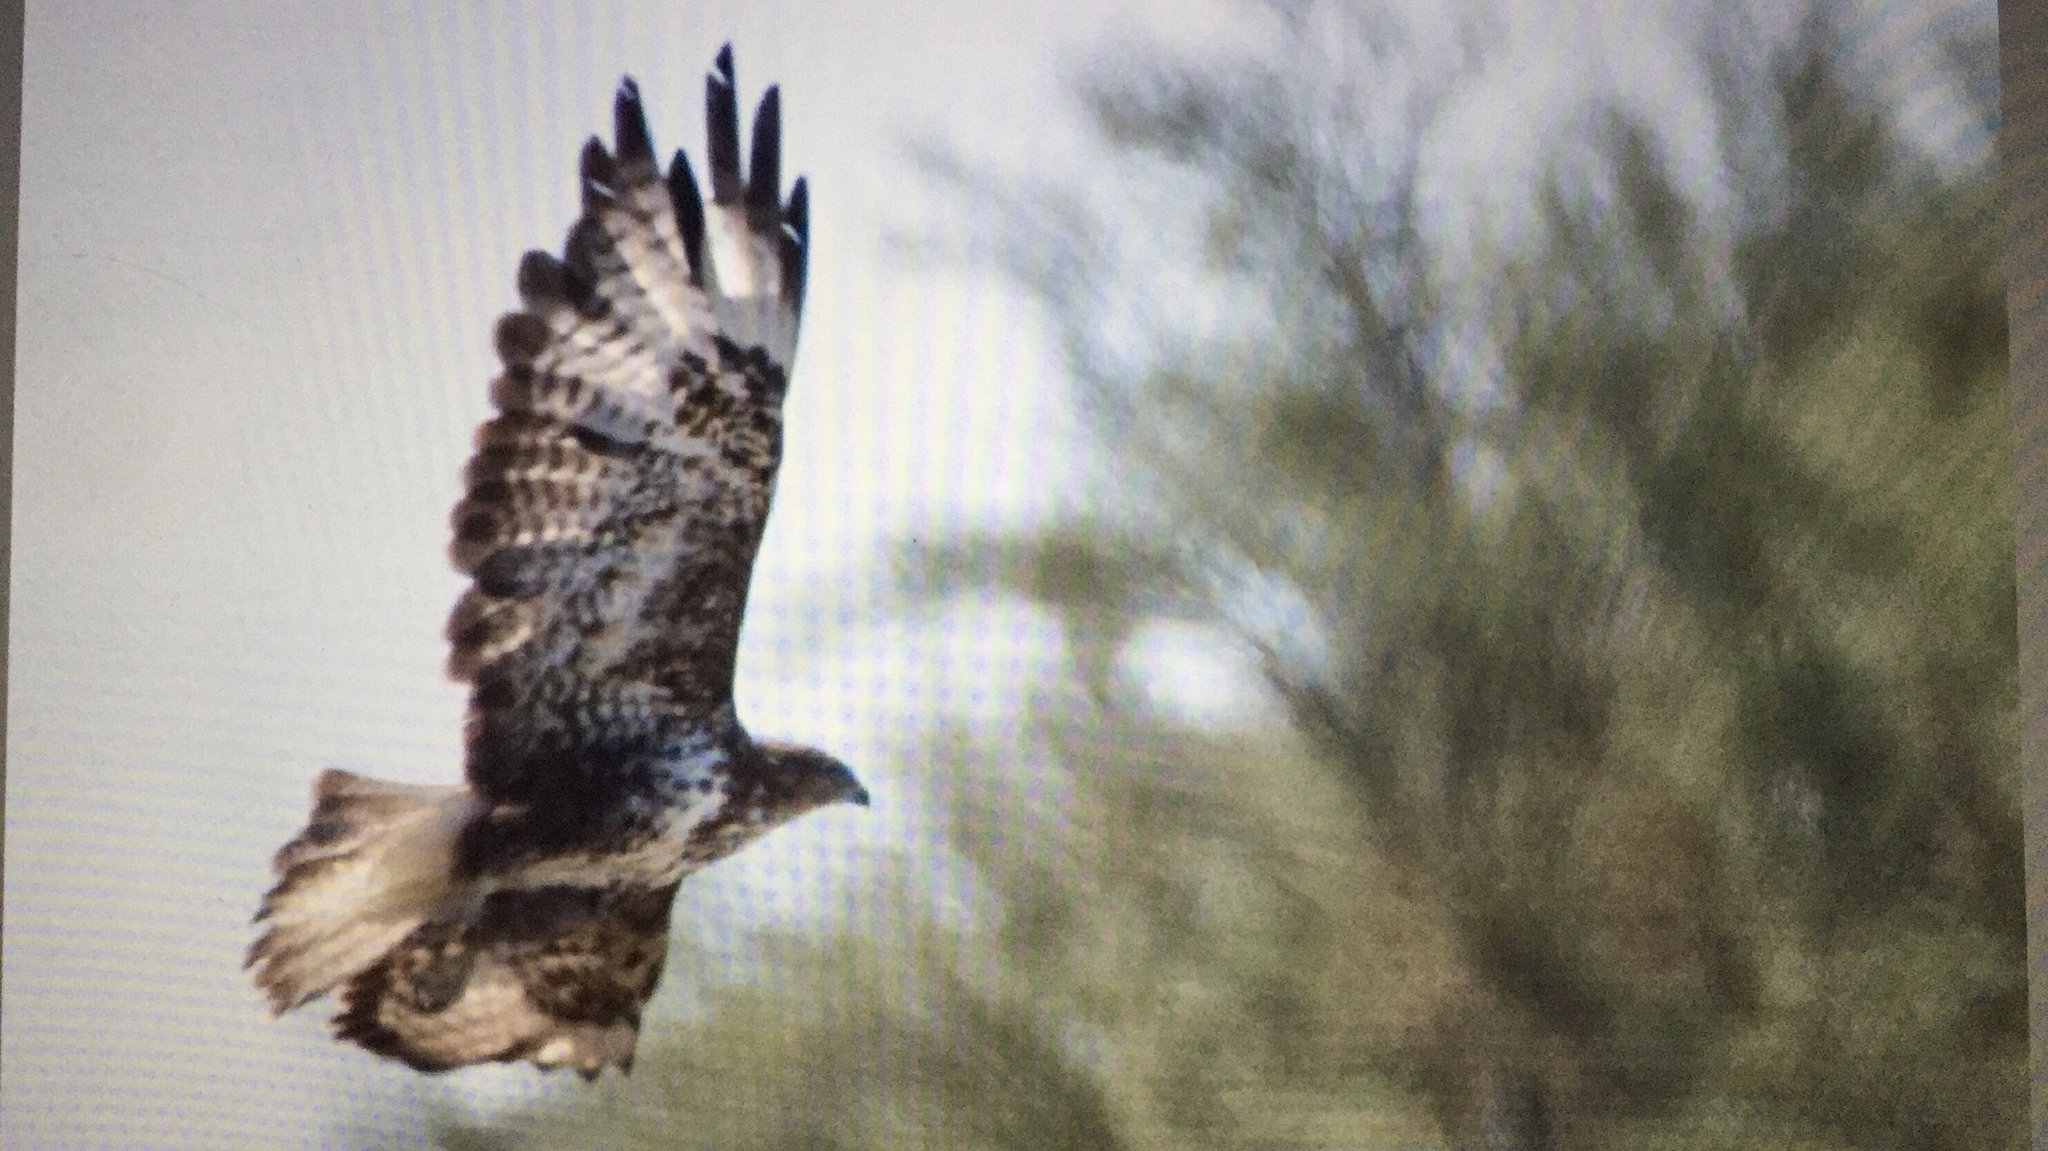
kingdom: Animalia
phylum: Chordata
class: Aves
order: Accipitriformes
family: Accipitridae
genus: Buteo
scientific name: Buteo buteo
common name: Common buzzard
